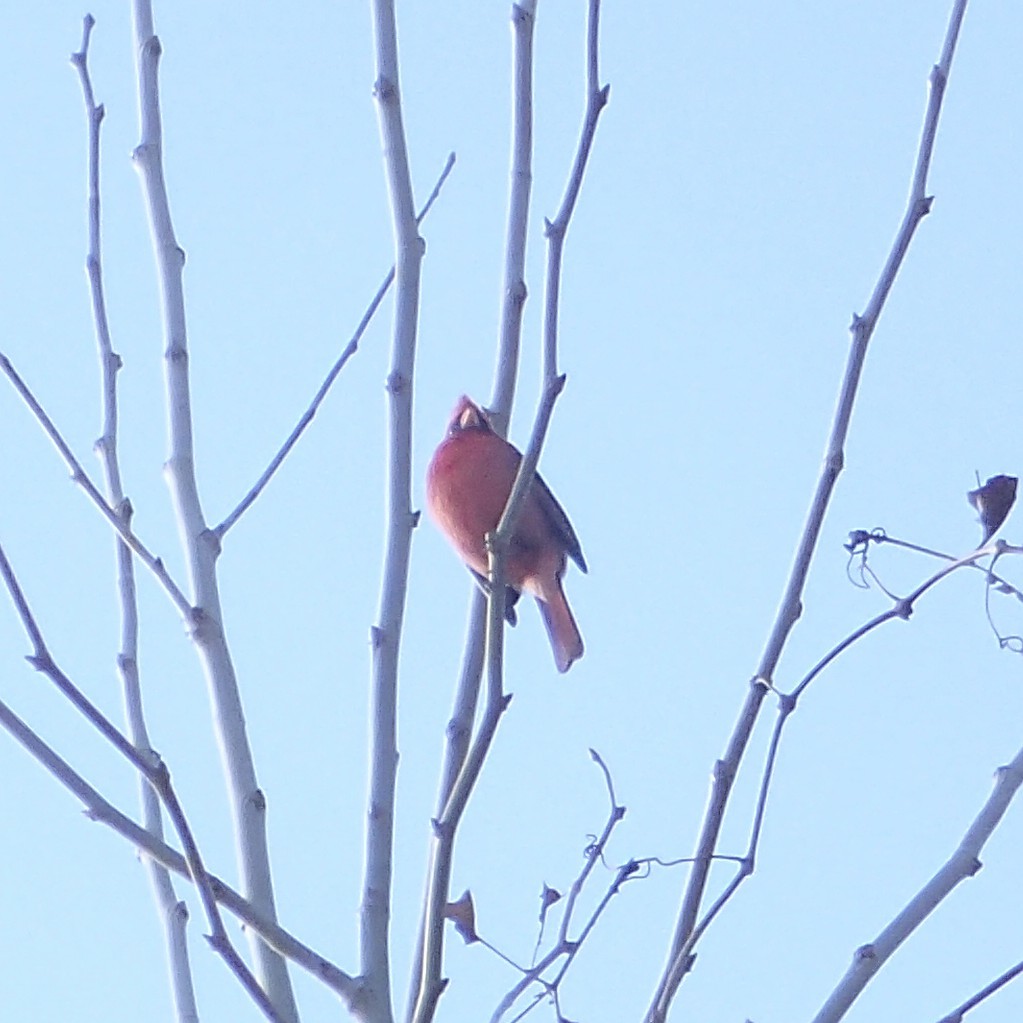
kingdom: Animalia
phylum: Chordata
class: Aves
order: Passeriformes
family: Cardinalidae
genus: Cardinalis
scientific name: Cardinalis cardinalis
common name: Northern cardinal
